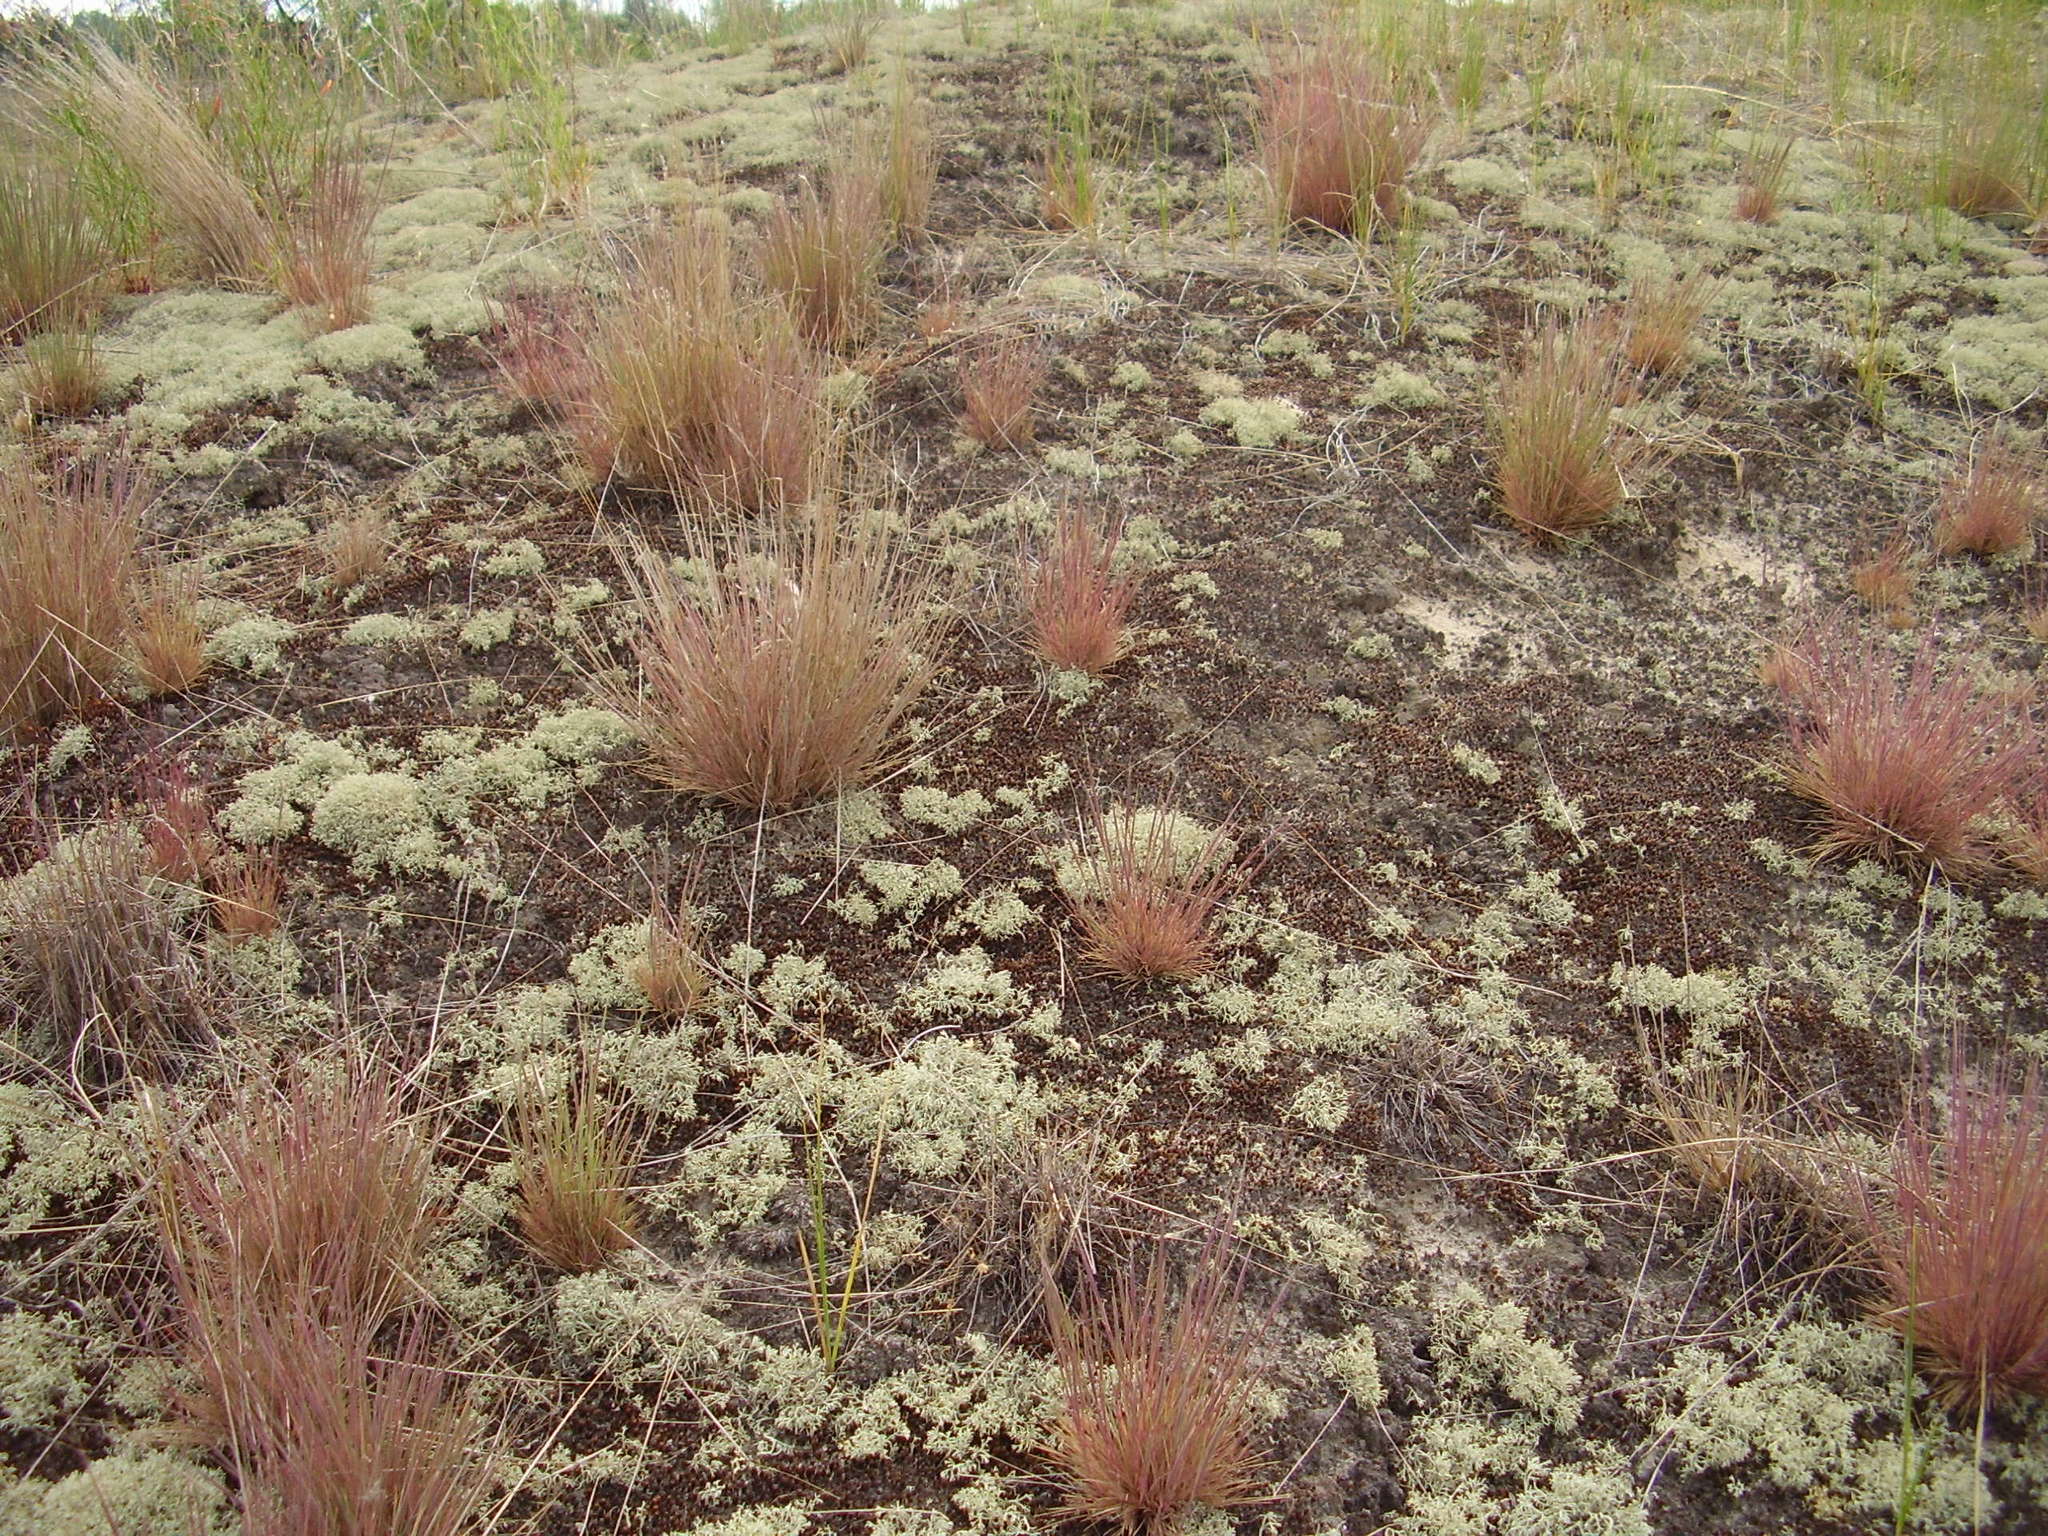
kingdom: Plantae
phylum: Tracheophyta
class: Liliopsida
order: Poales
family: Poaceae
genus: Corynephorus
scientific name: Corynephorus canescens
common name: Grey hair-grass
